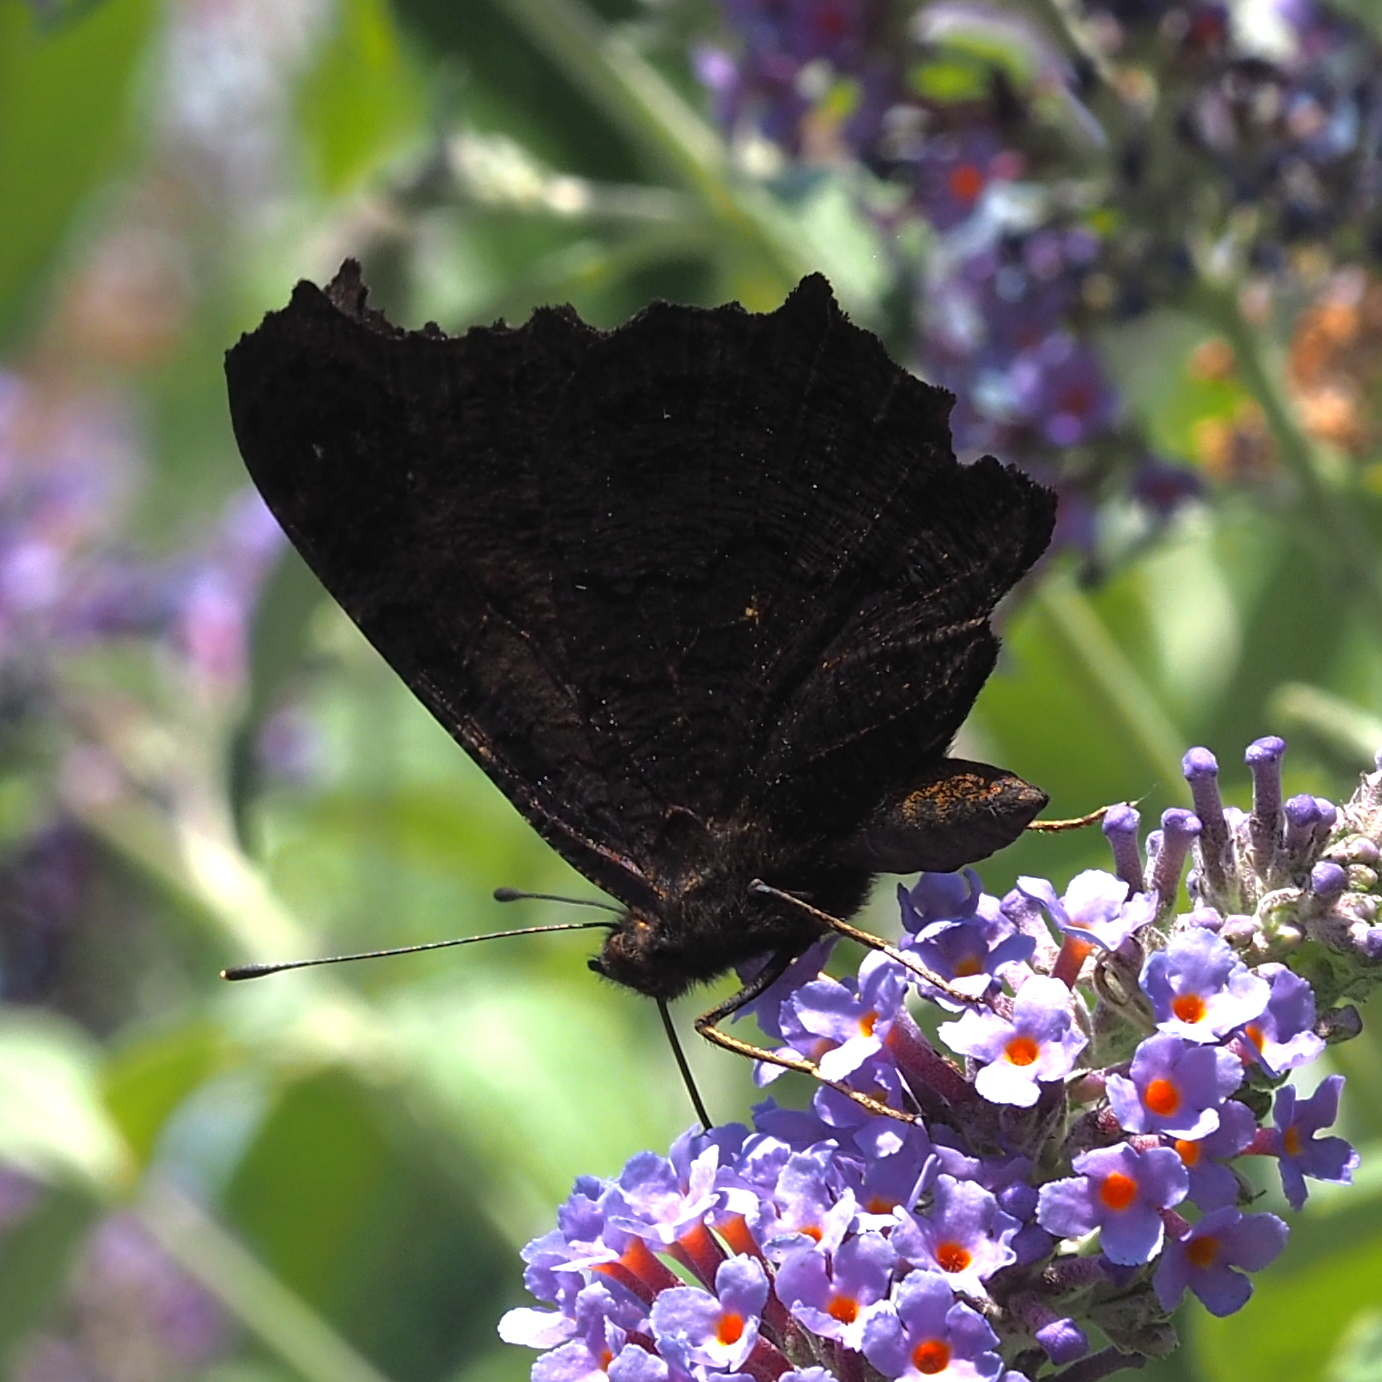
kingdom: Animalia
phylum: Arthropoda
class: Insecta
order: Lepidoptera
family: Nymphalidae
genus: Aglais
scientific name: Aglais io
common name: Peacock
